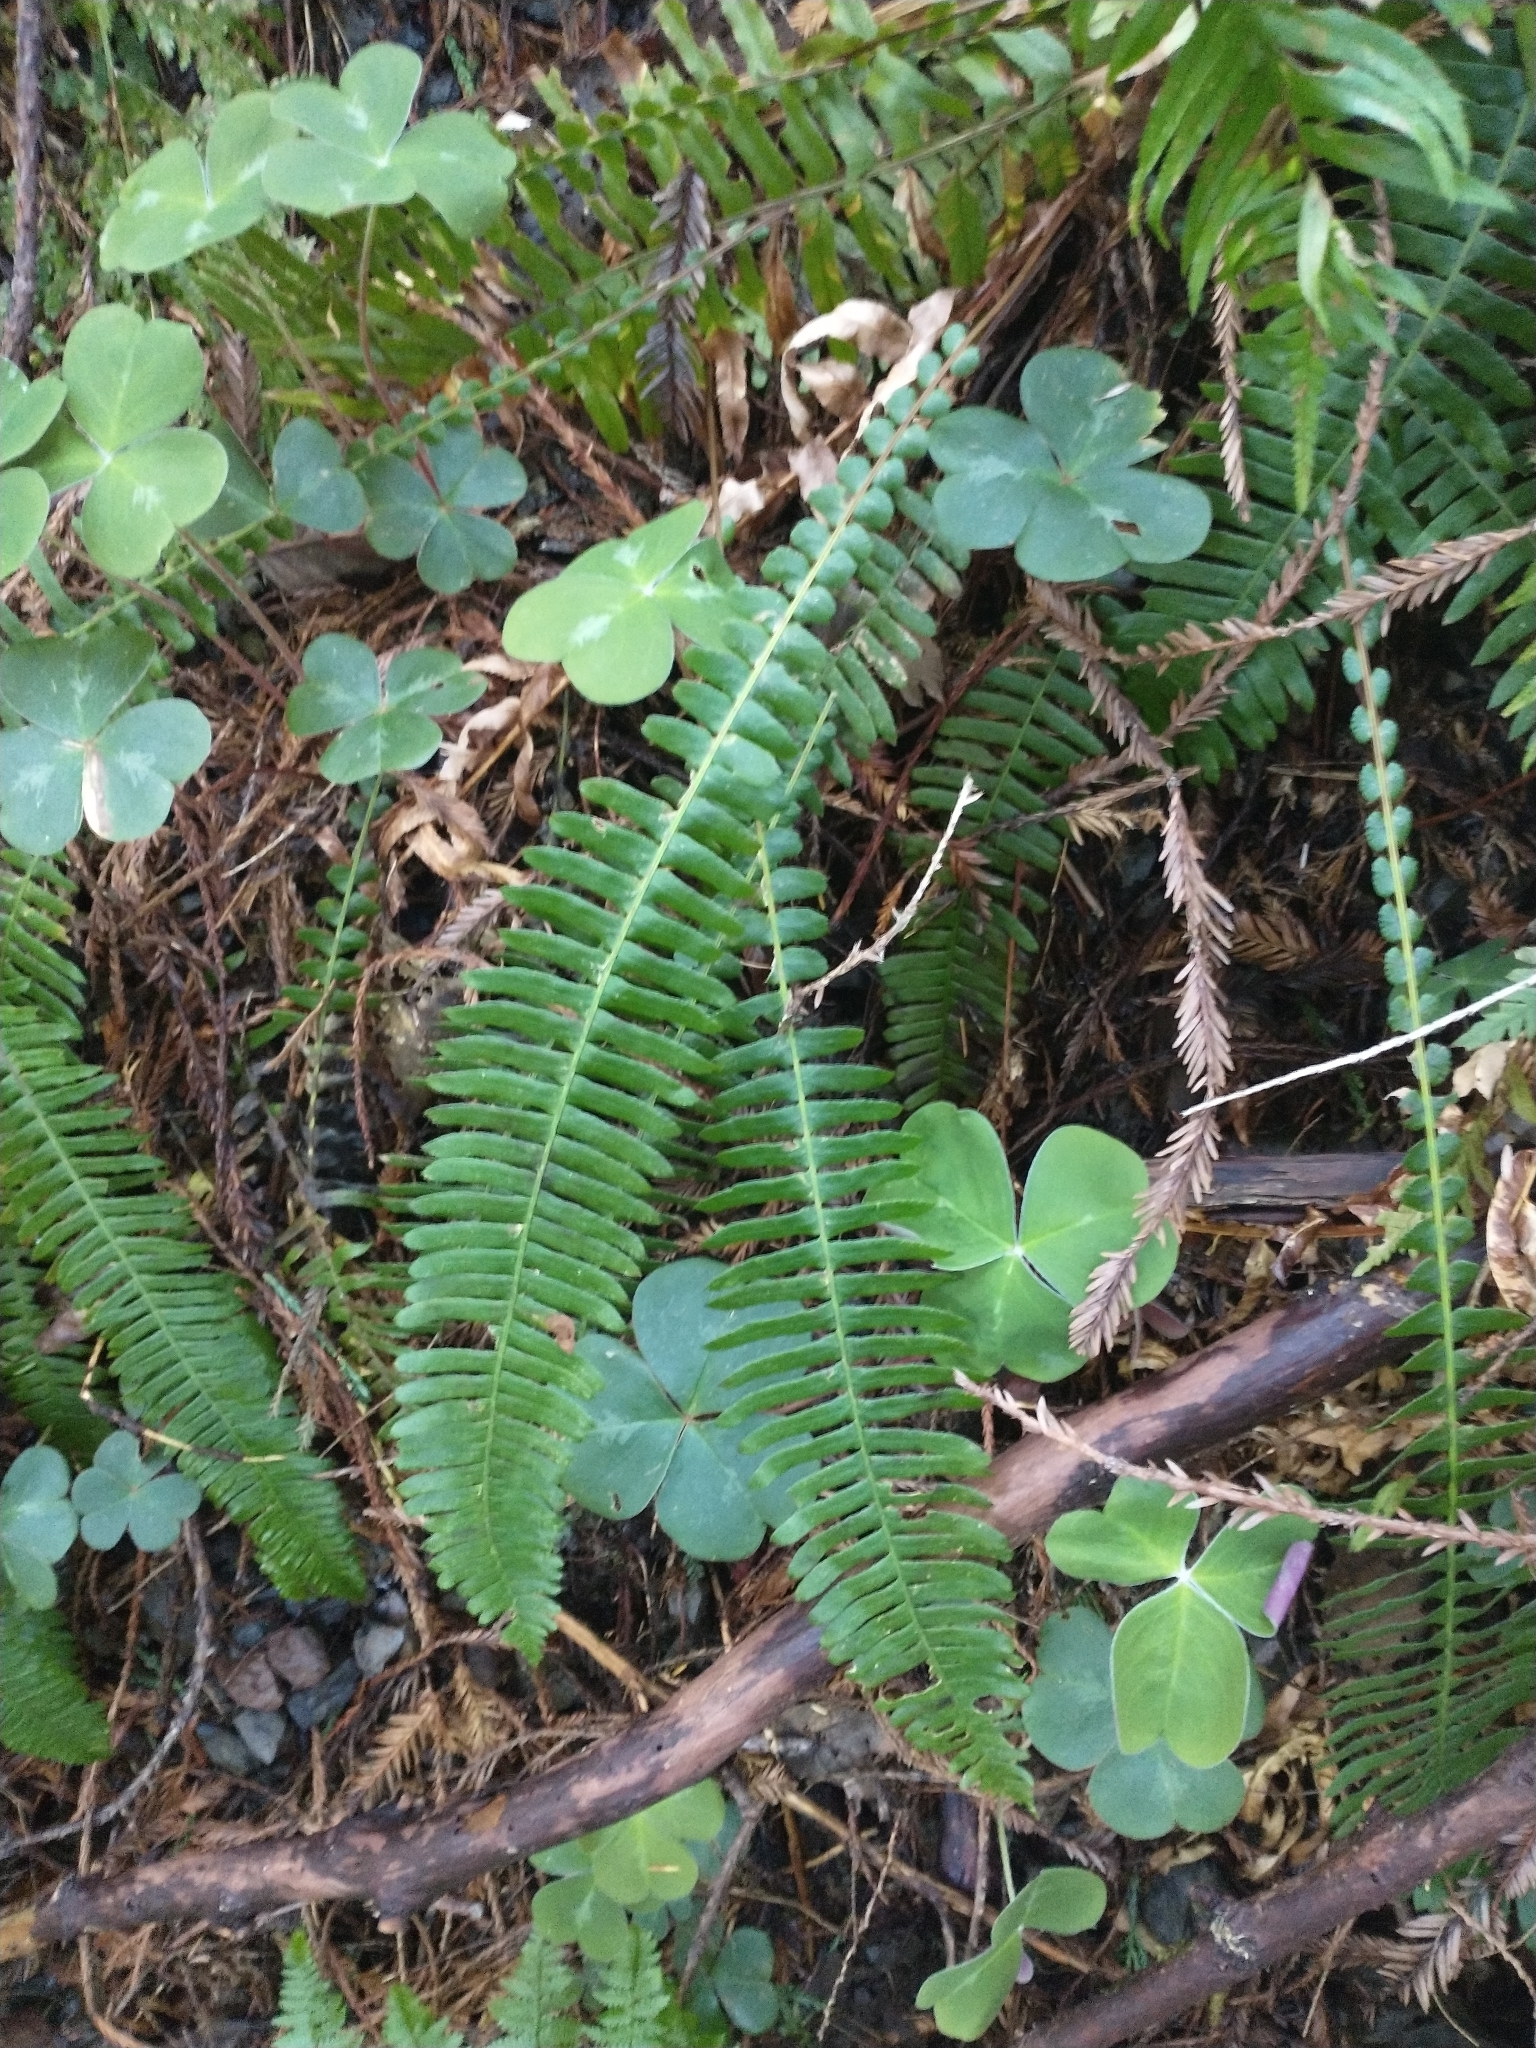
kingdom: Plantae
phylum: Tracheophyta
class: Polypodiopsida
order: Polypodiales
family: Blechnaceae
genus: Struthiopteris
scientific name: Struthiopteris spicant
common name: Deer fern
